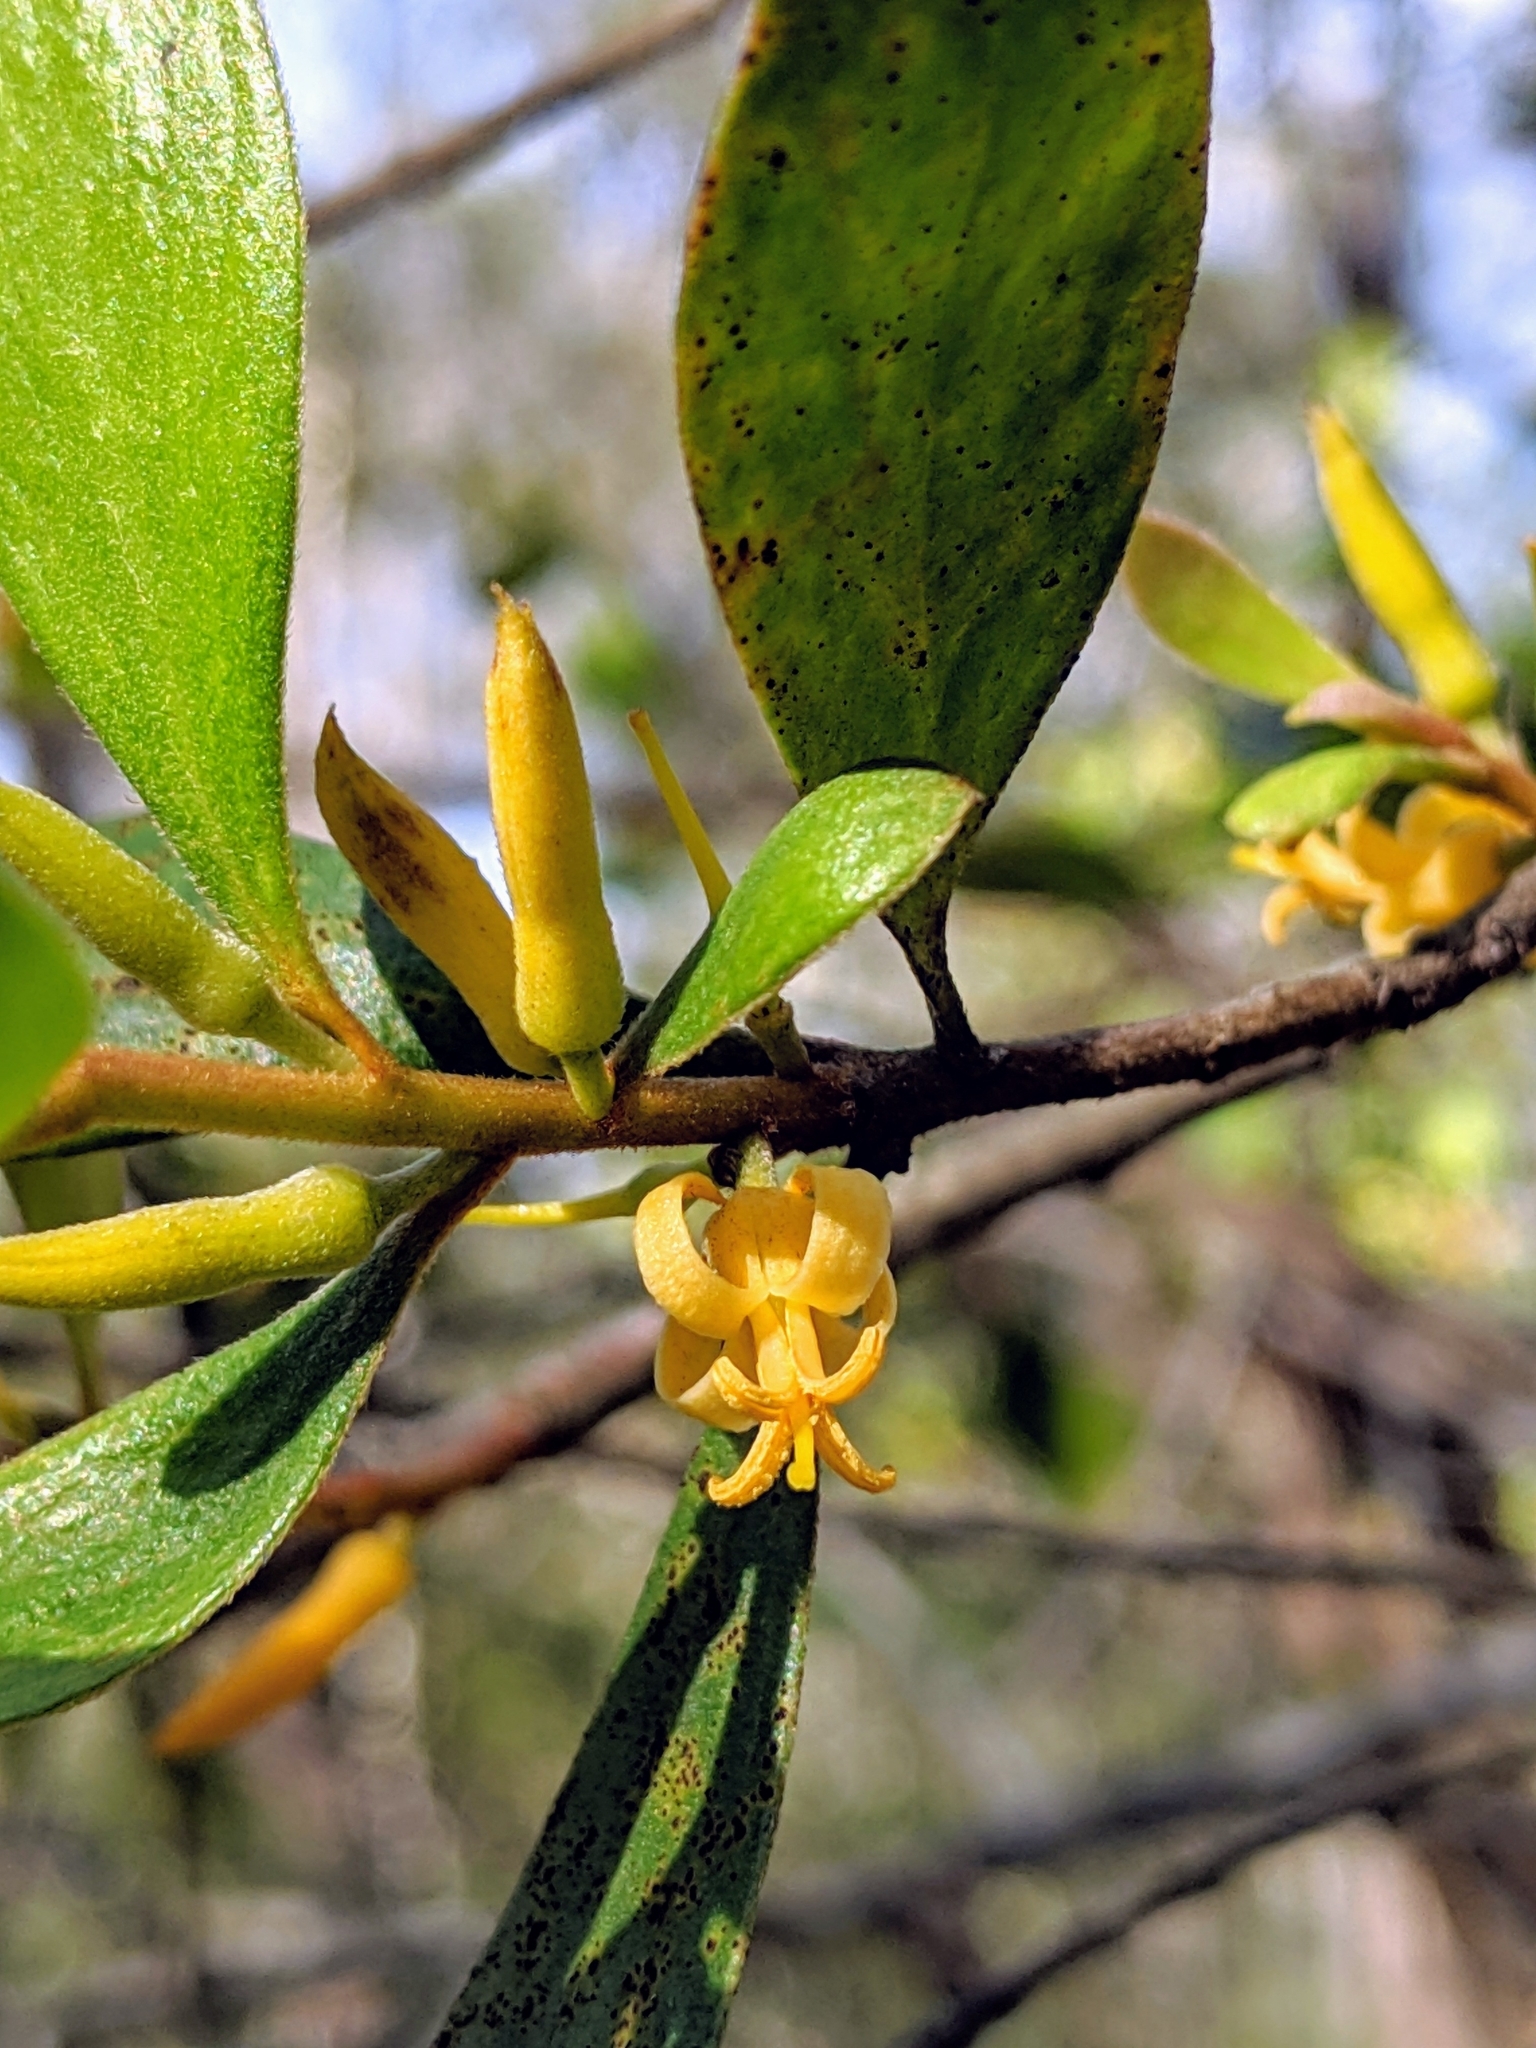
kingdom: Plantae
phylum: Tracheophyta
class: Magnoliopsida
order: Proteales
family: Proteaceae
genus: Persoonia
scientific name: Persoonia stradbrokensis
